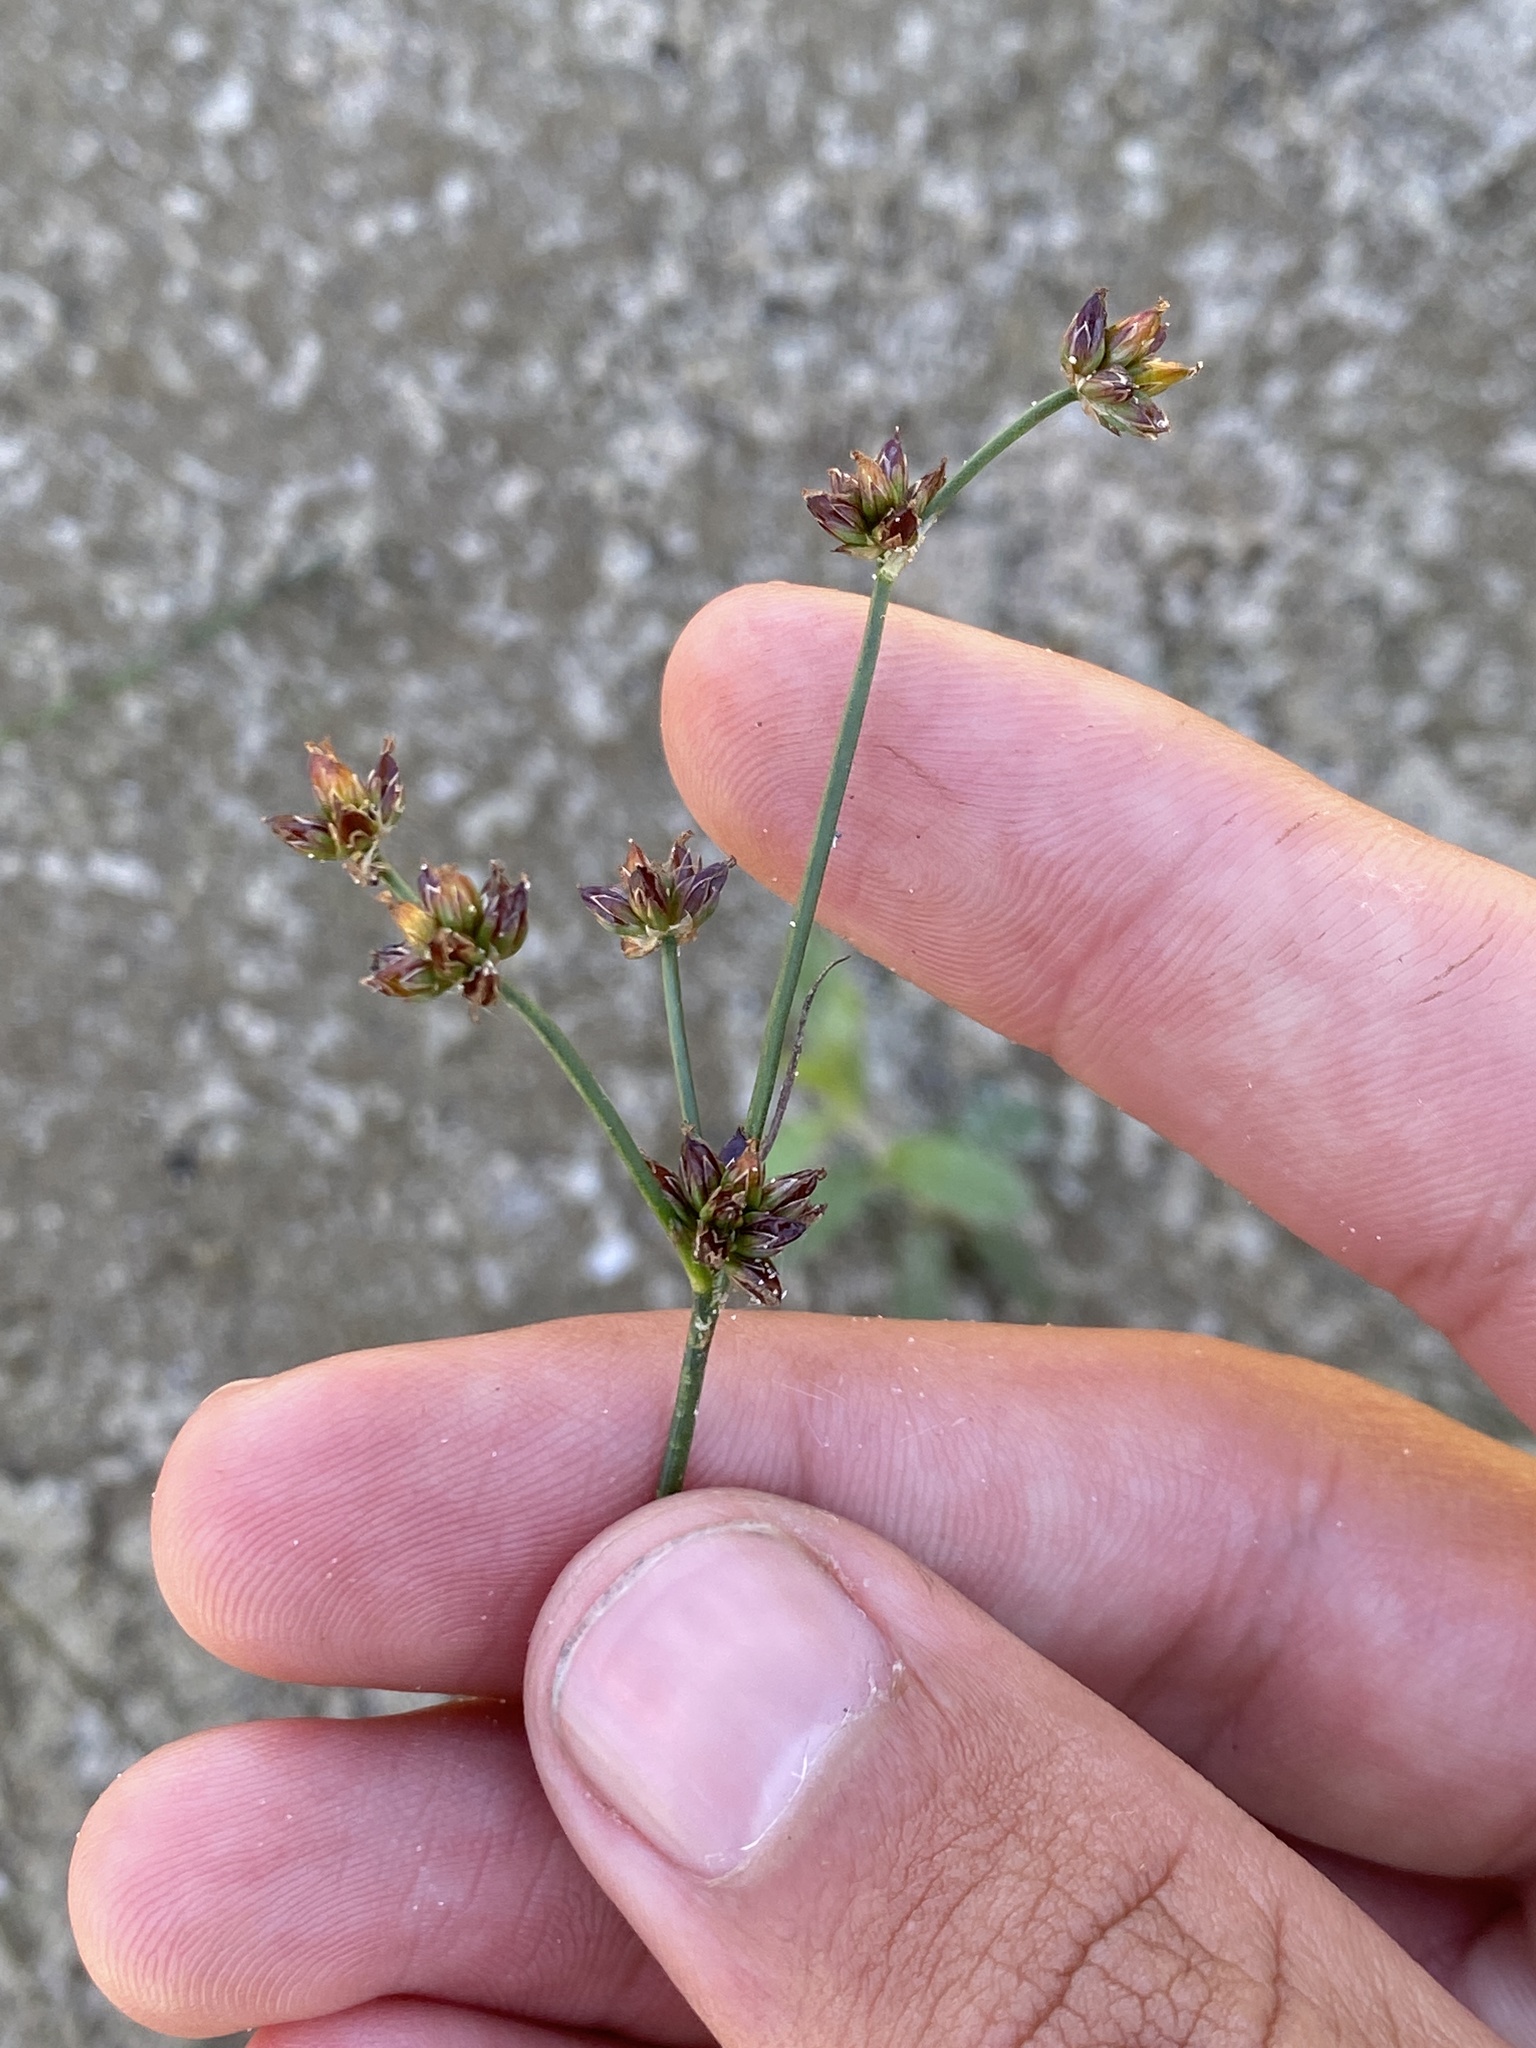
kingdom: Plantae
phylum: Tracheophyta
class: Liliopsida
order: Poales
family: Juncaceae
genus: Juncus
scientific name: Juncus articulatus
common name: Jointed rush
